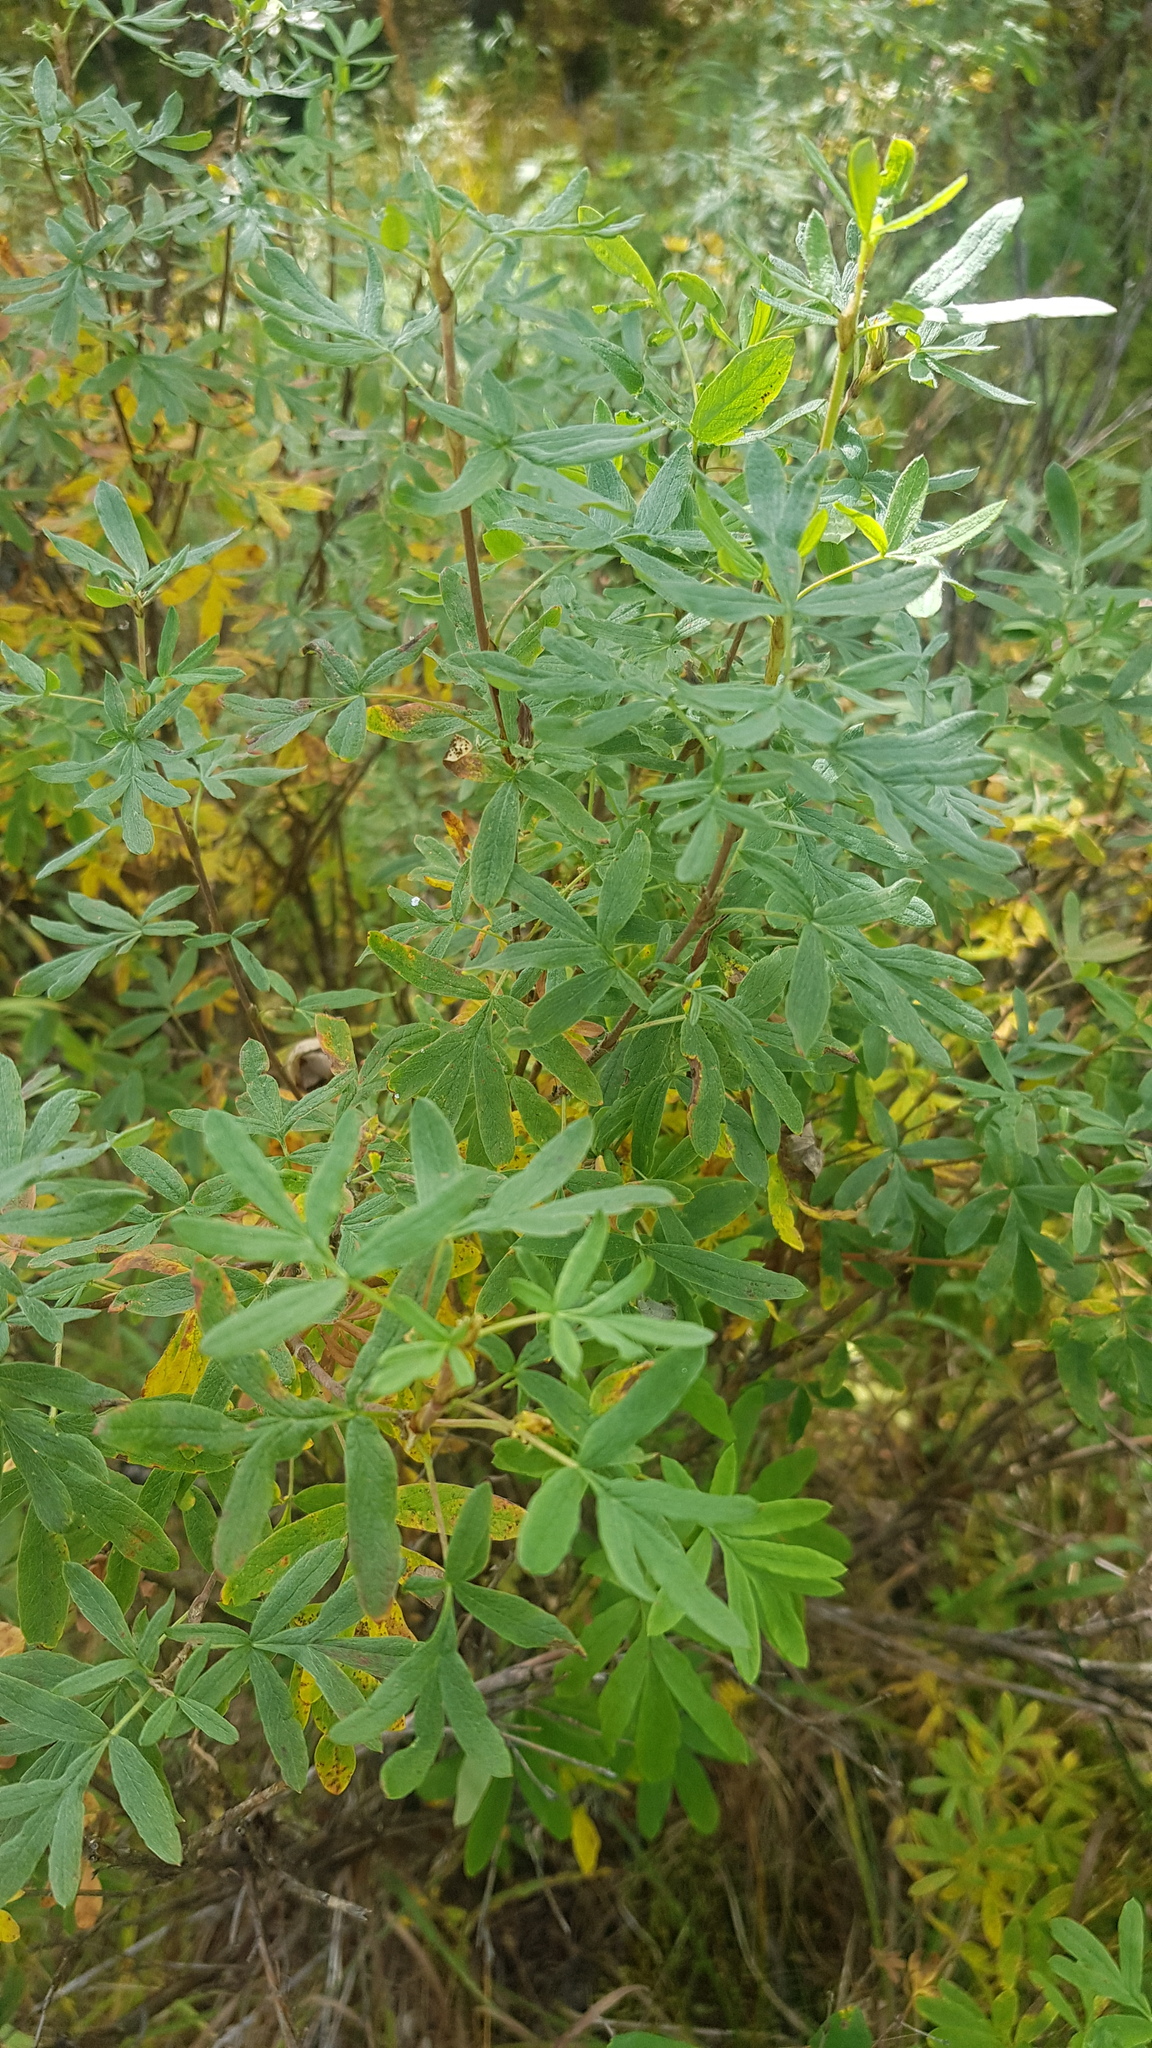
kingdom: Plantae
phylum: Tracheophyta
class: Magnoliopsida
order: Rosales
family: Rosaceae
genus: Dasiphora
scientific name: Dasiphora fruticosa
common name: Shrubby cinquefoil
